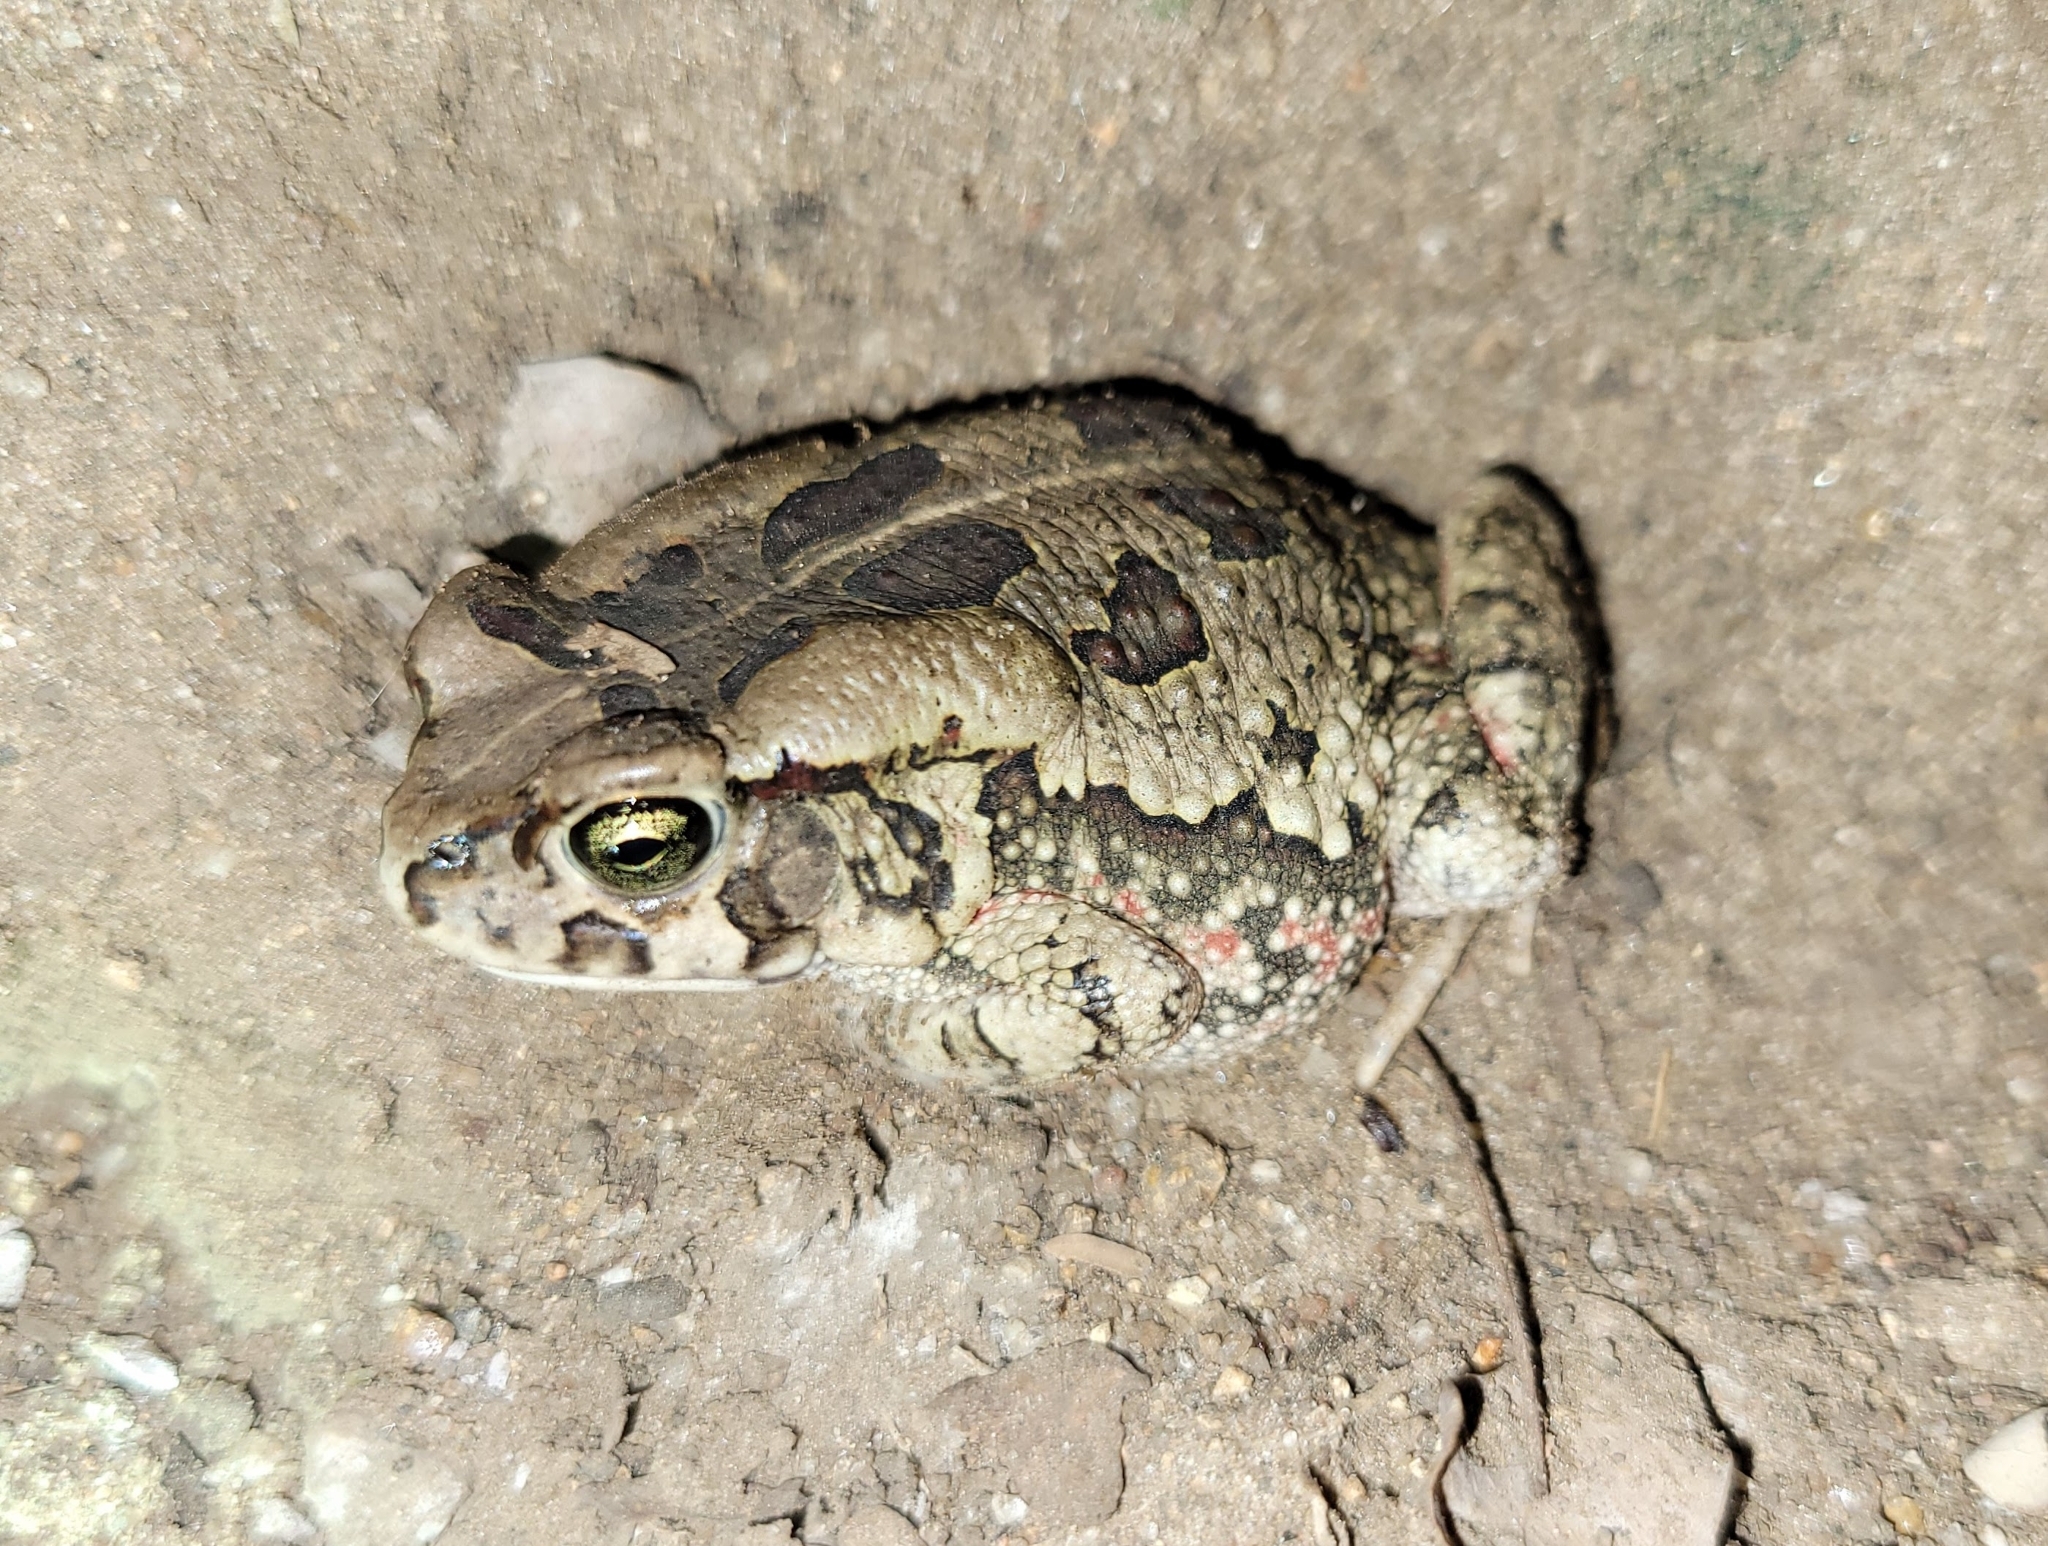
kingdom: Animalia
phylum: Chordata
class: Amphibia
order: Anura
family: Bufonidae
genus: Sclerophrys
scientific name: Sclerophrys garmani
